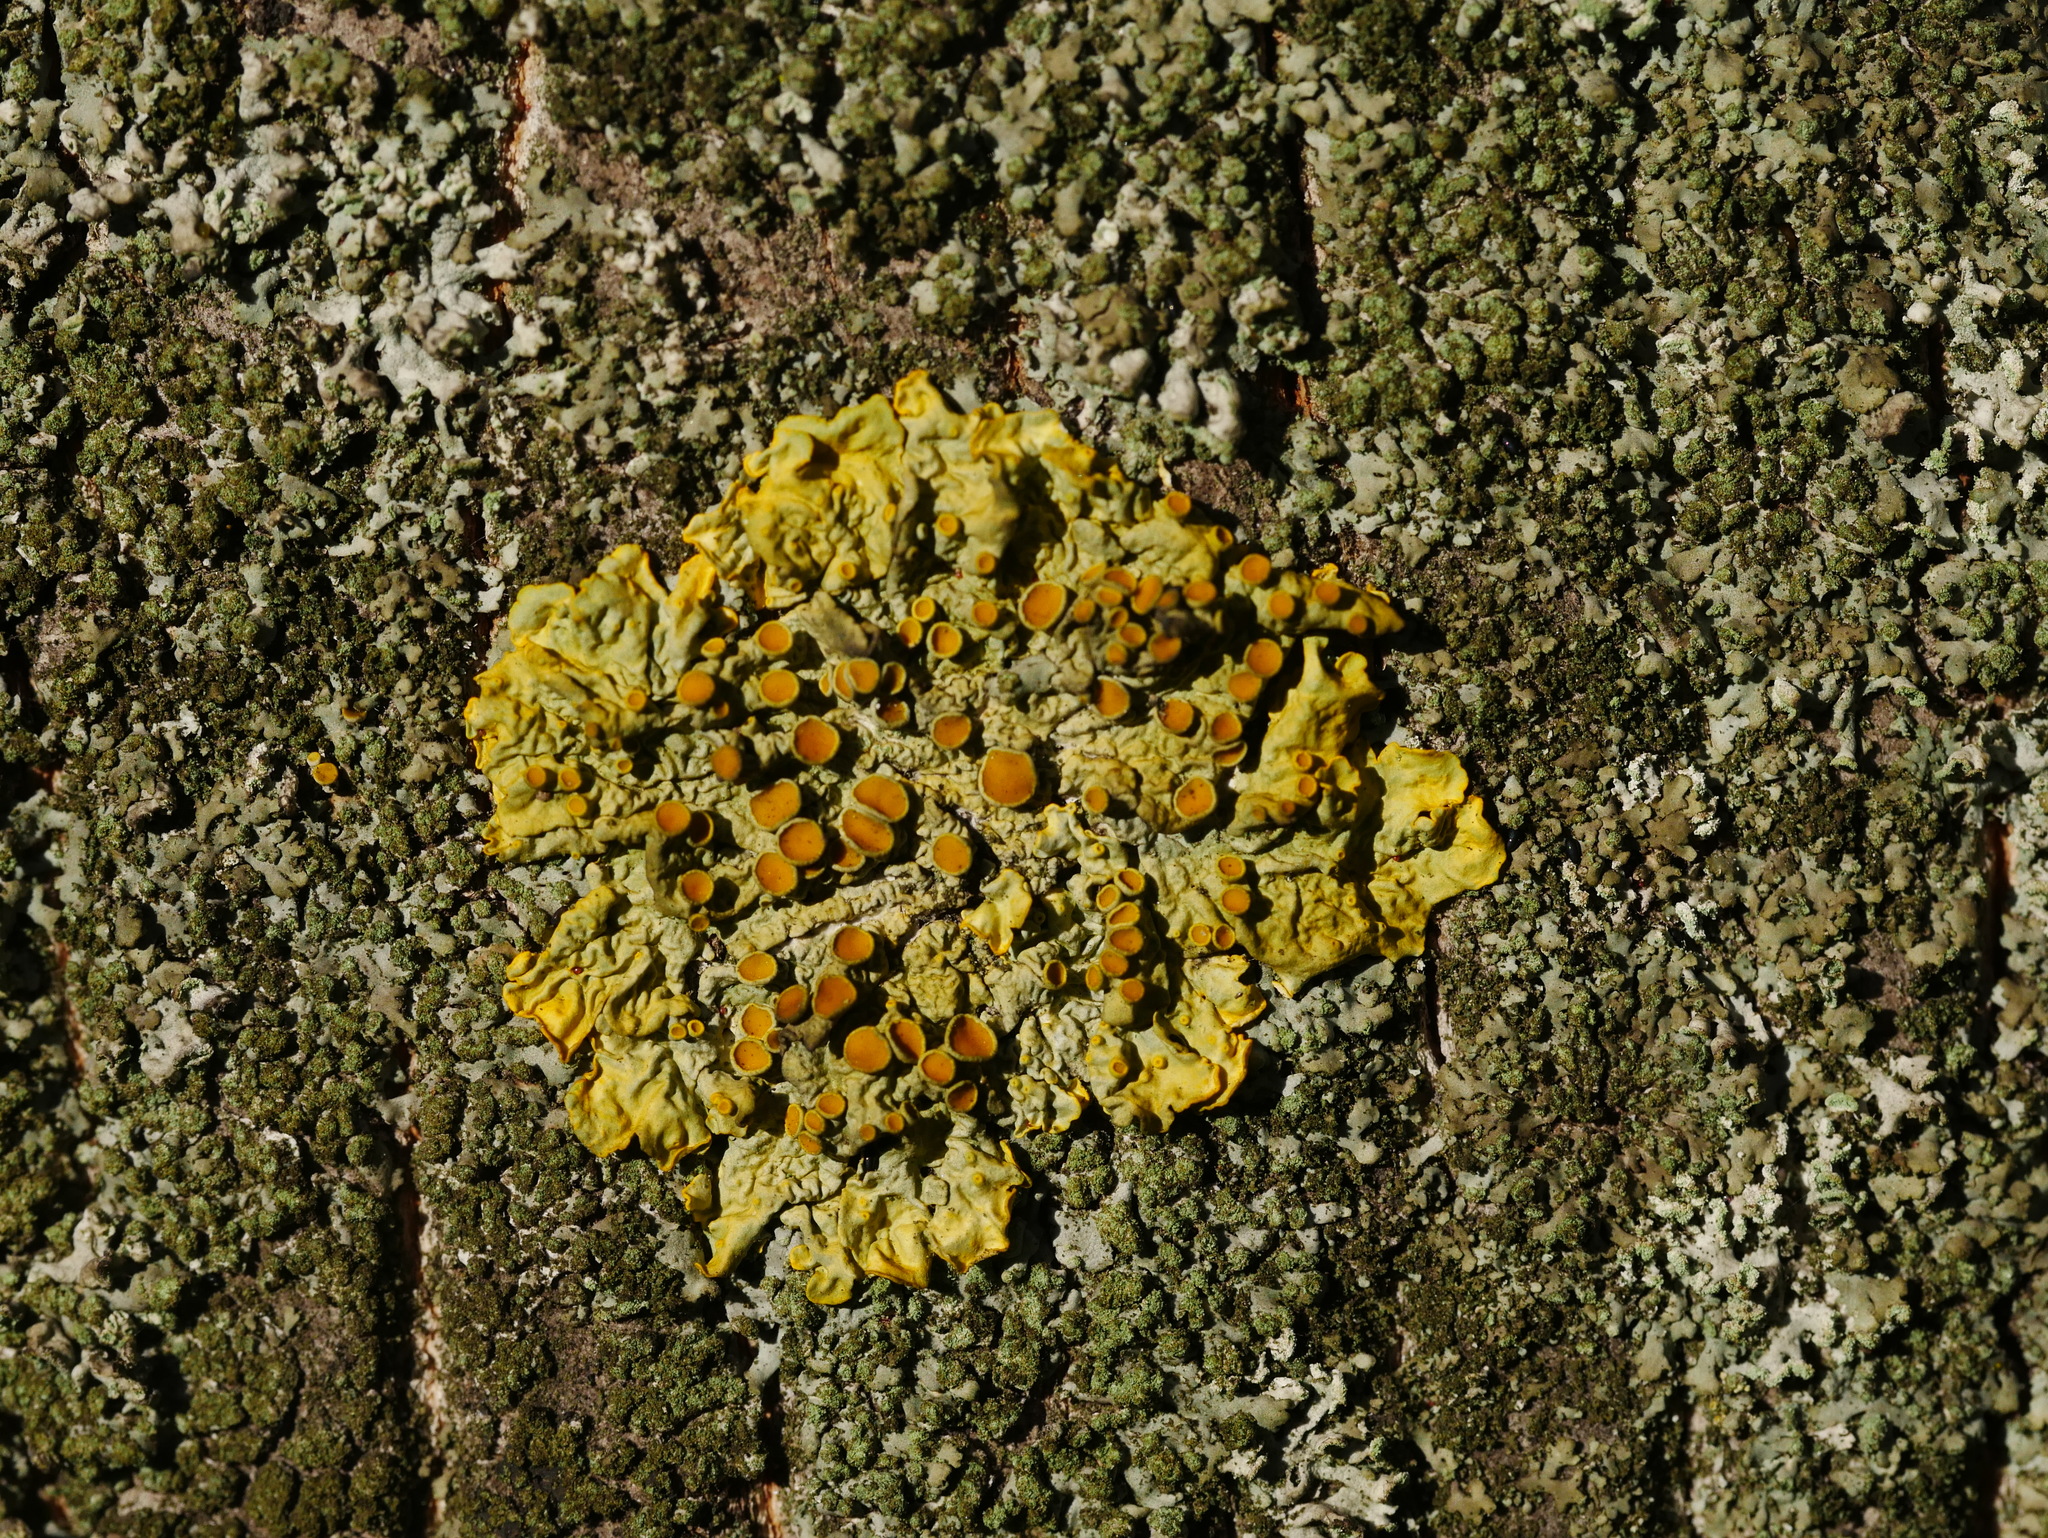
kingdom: Fungi
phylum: Ascomycota
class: Lecanoromycetes
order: Teloschistales
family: Teloschistaceae
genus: Xanthoria
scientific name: Xanthoria parietina
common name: Common orange lichen
